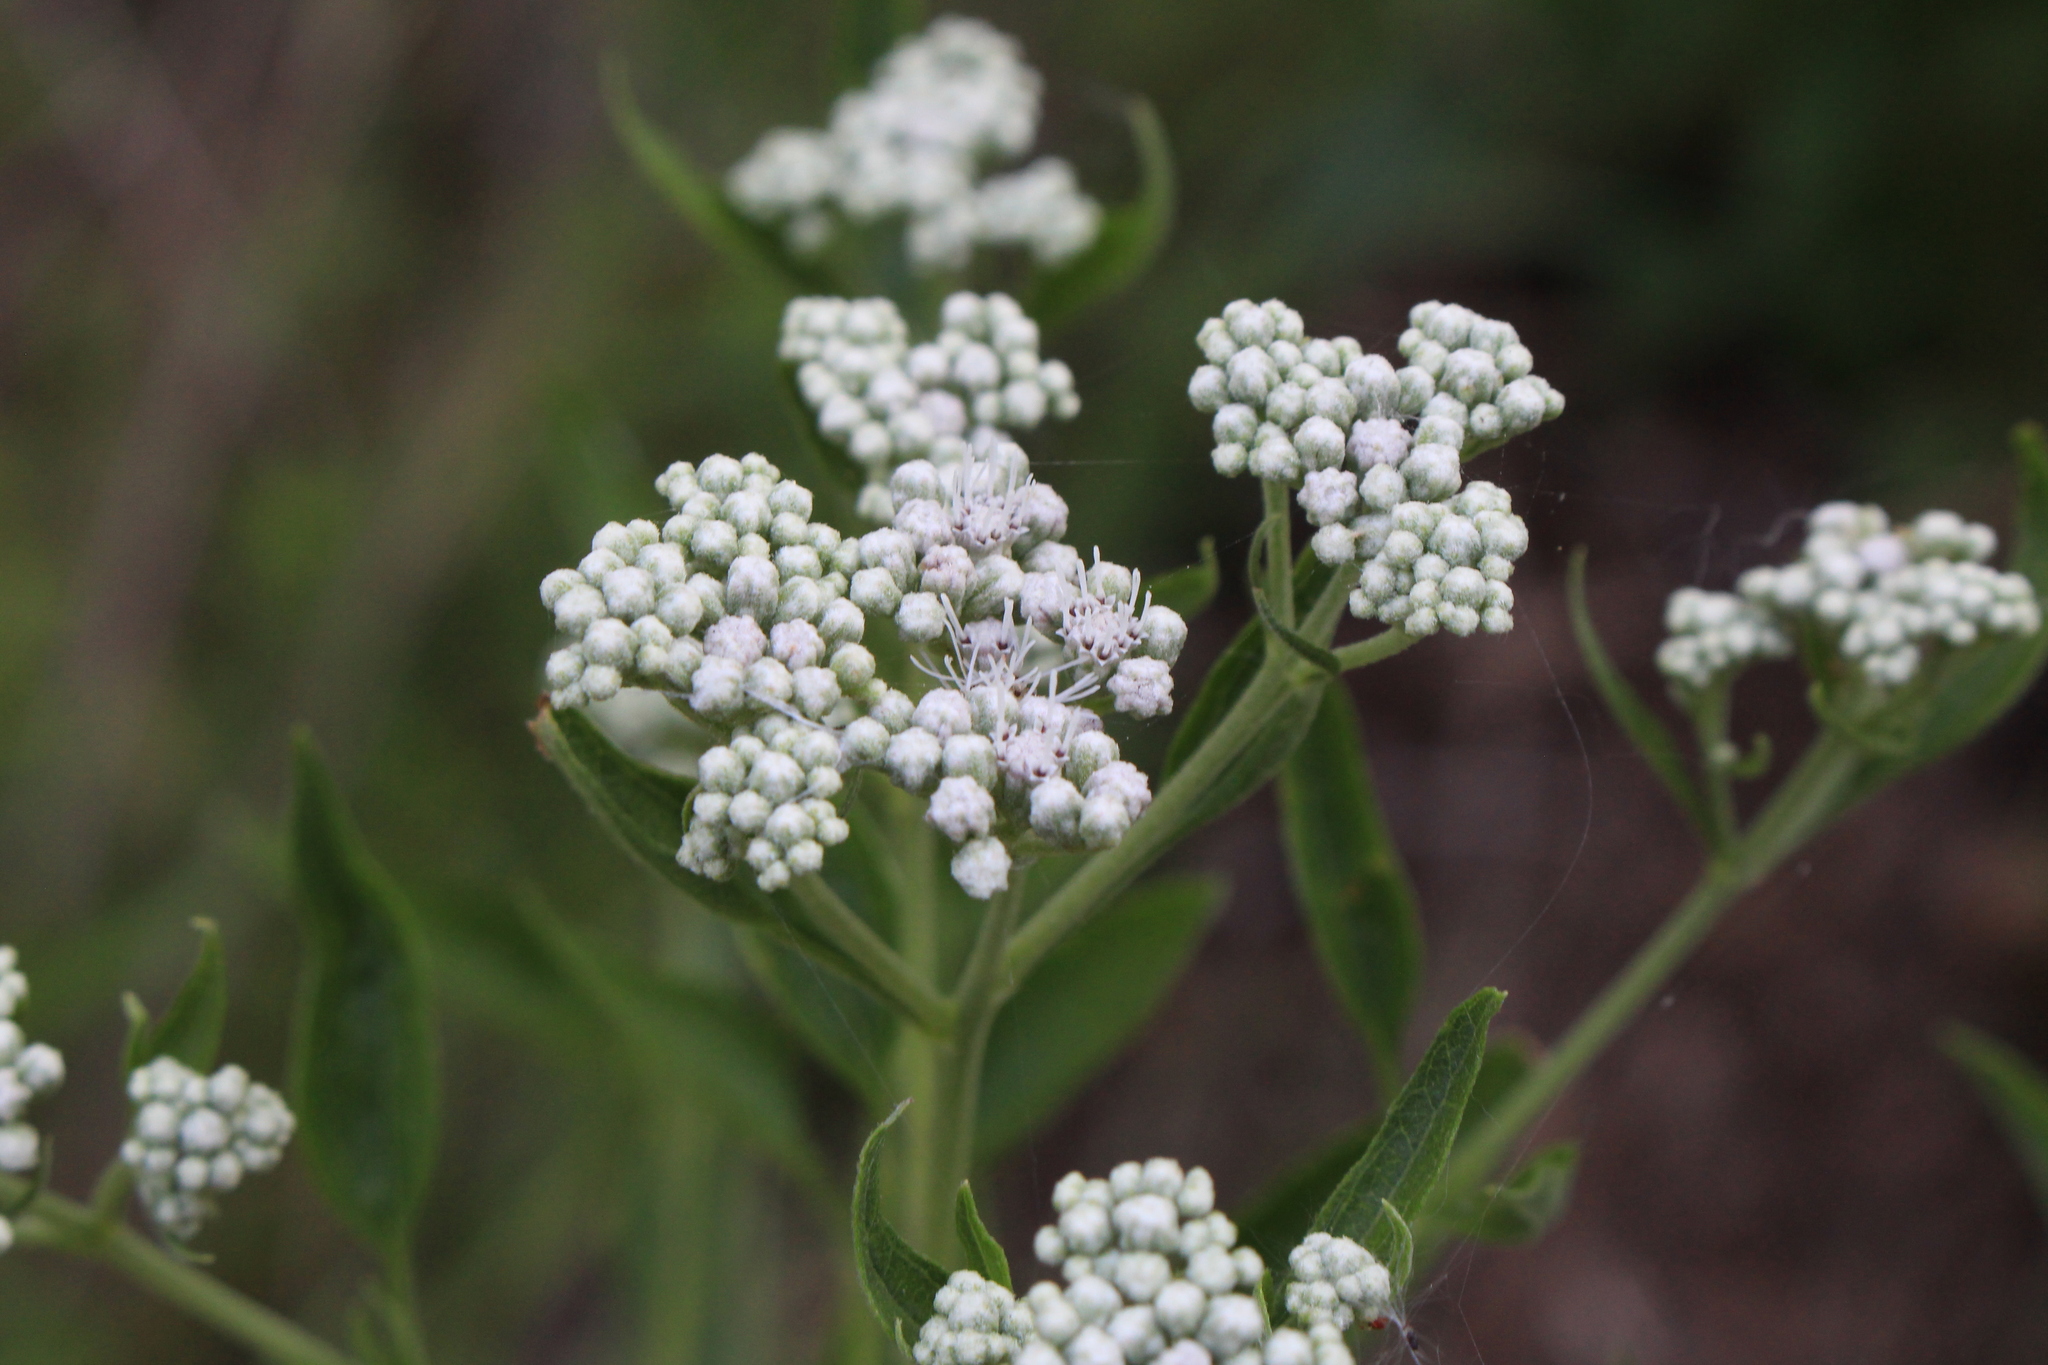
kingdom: Plantae
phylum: Tracheophyta
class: Magnoliopsida
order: Asterales
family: Asteraceae
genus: Eupatorium
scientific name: Eupatorium serotinum
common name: Late boneset
